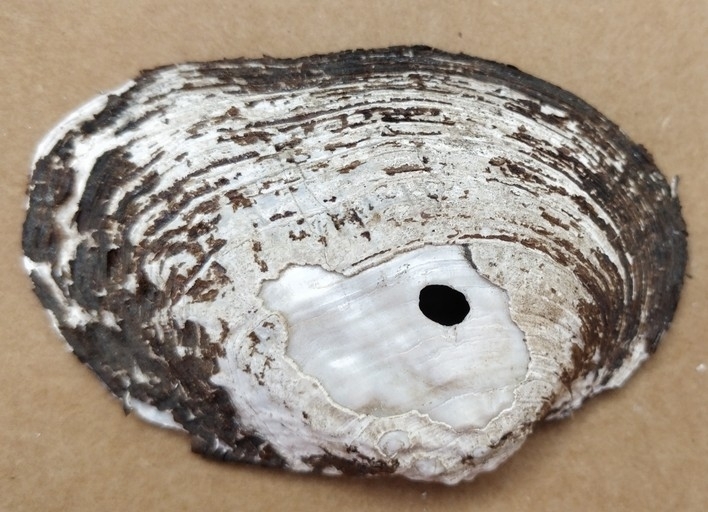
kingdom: Animalia
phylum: Mollusca
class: Bivalvia
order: Unionida
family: Unionidae
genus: Arcidens
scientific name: Arcidens confragosus
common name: Rock pocketbook
